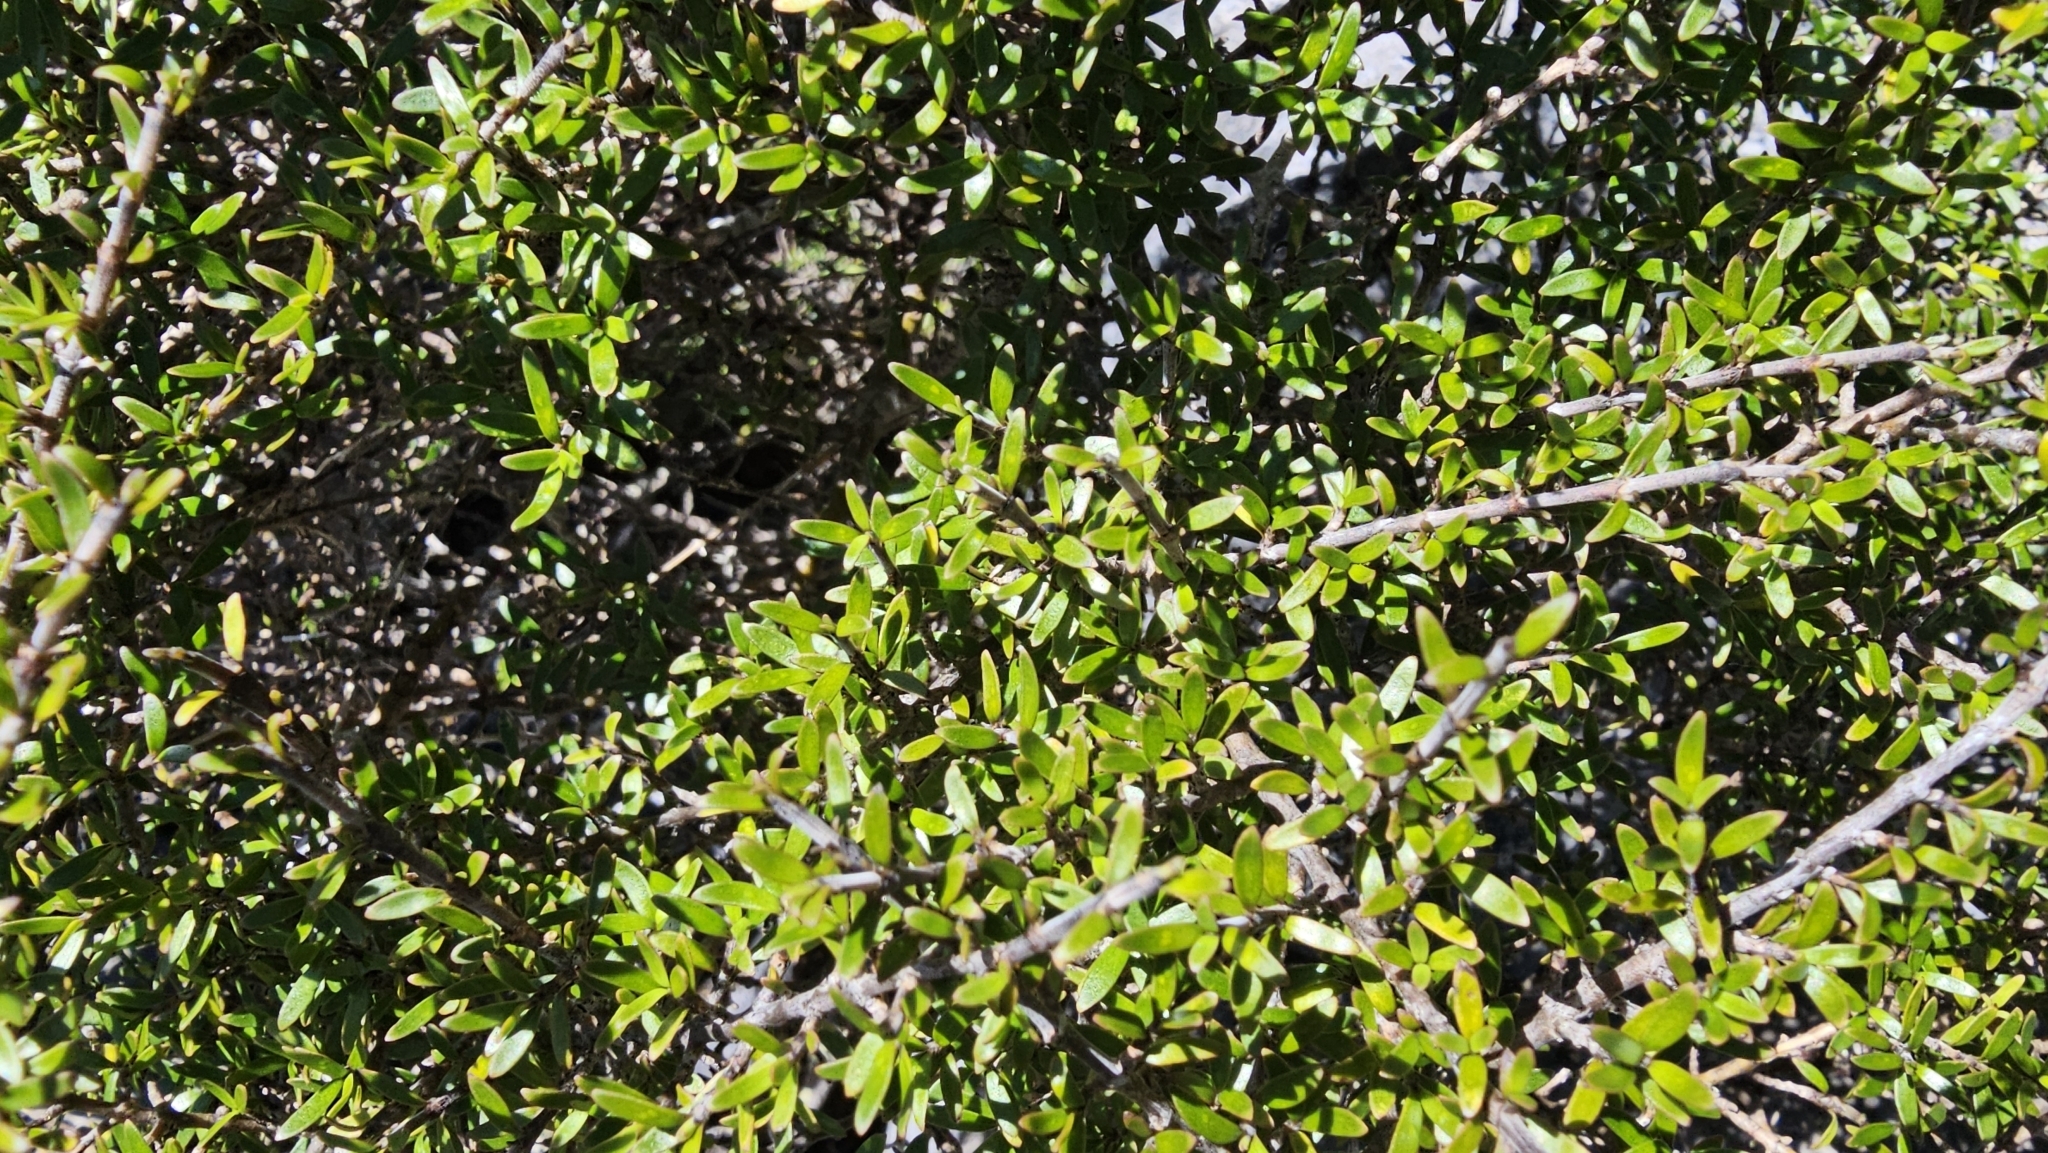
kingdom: Plantae
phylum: Tracheophyta
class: Magnoliopsida
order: Gentianales
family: Rubiaceae
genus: Coprosma
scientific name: Coprosma propinqua
